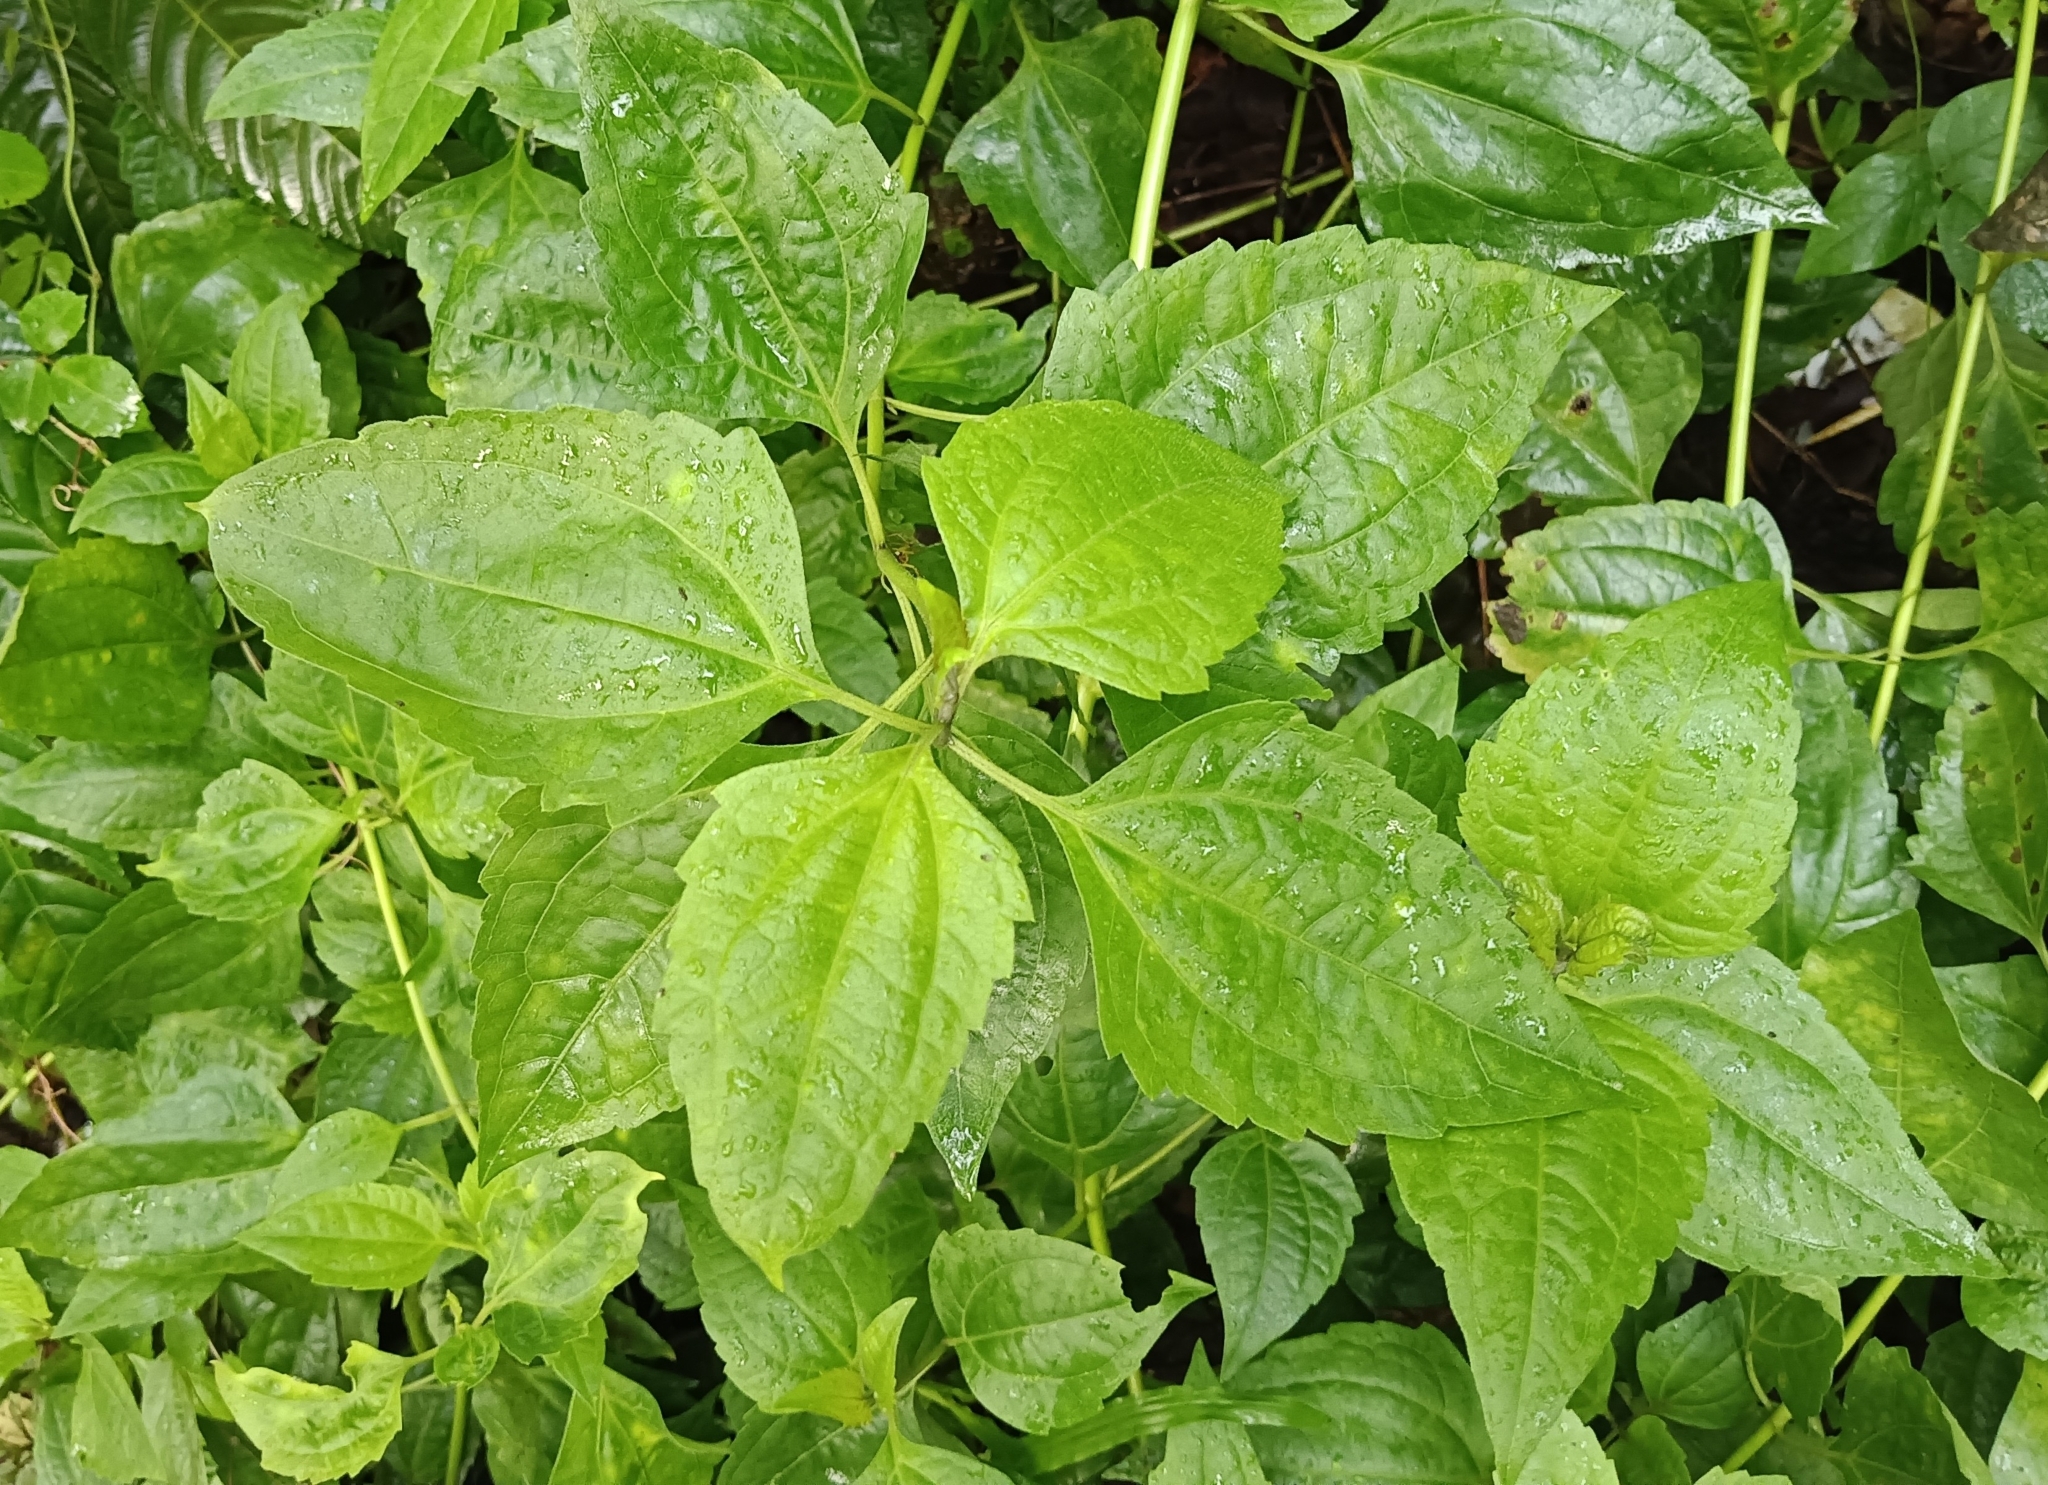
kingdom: Plantae
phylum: Tracheophyta
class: Magnoliopsida
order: Asterales
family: Asteraceae
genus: Chromolaena
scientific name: Chromolaena odorata
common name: Siamweed
